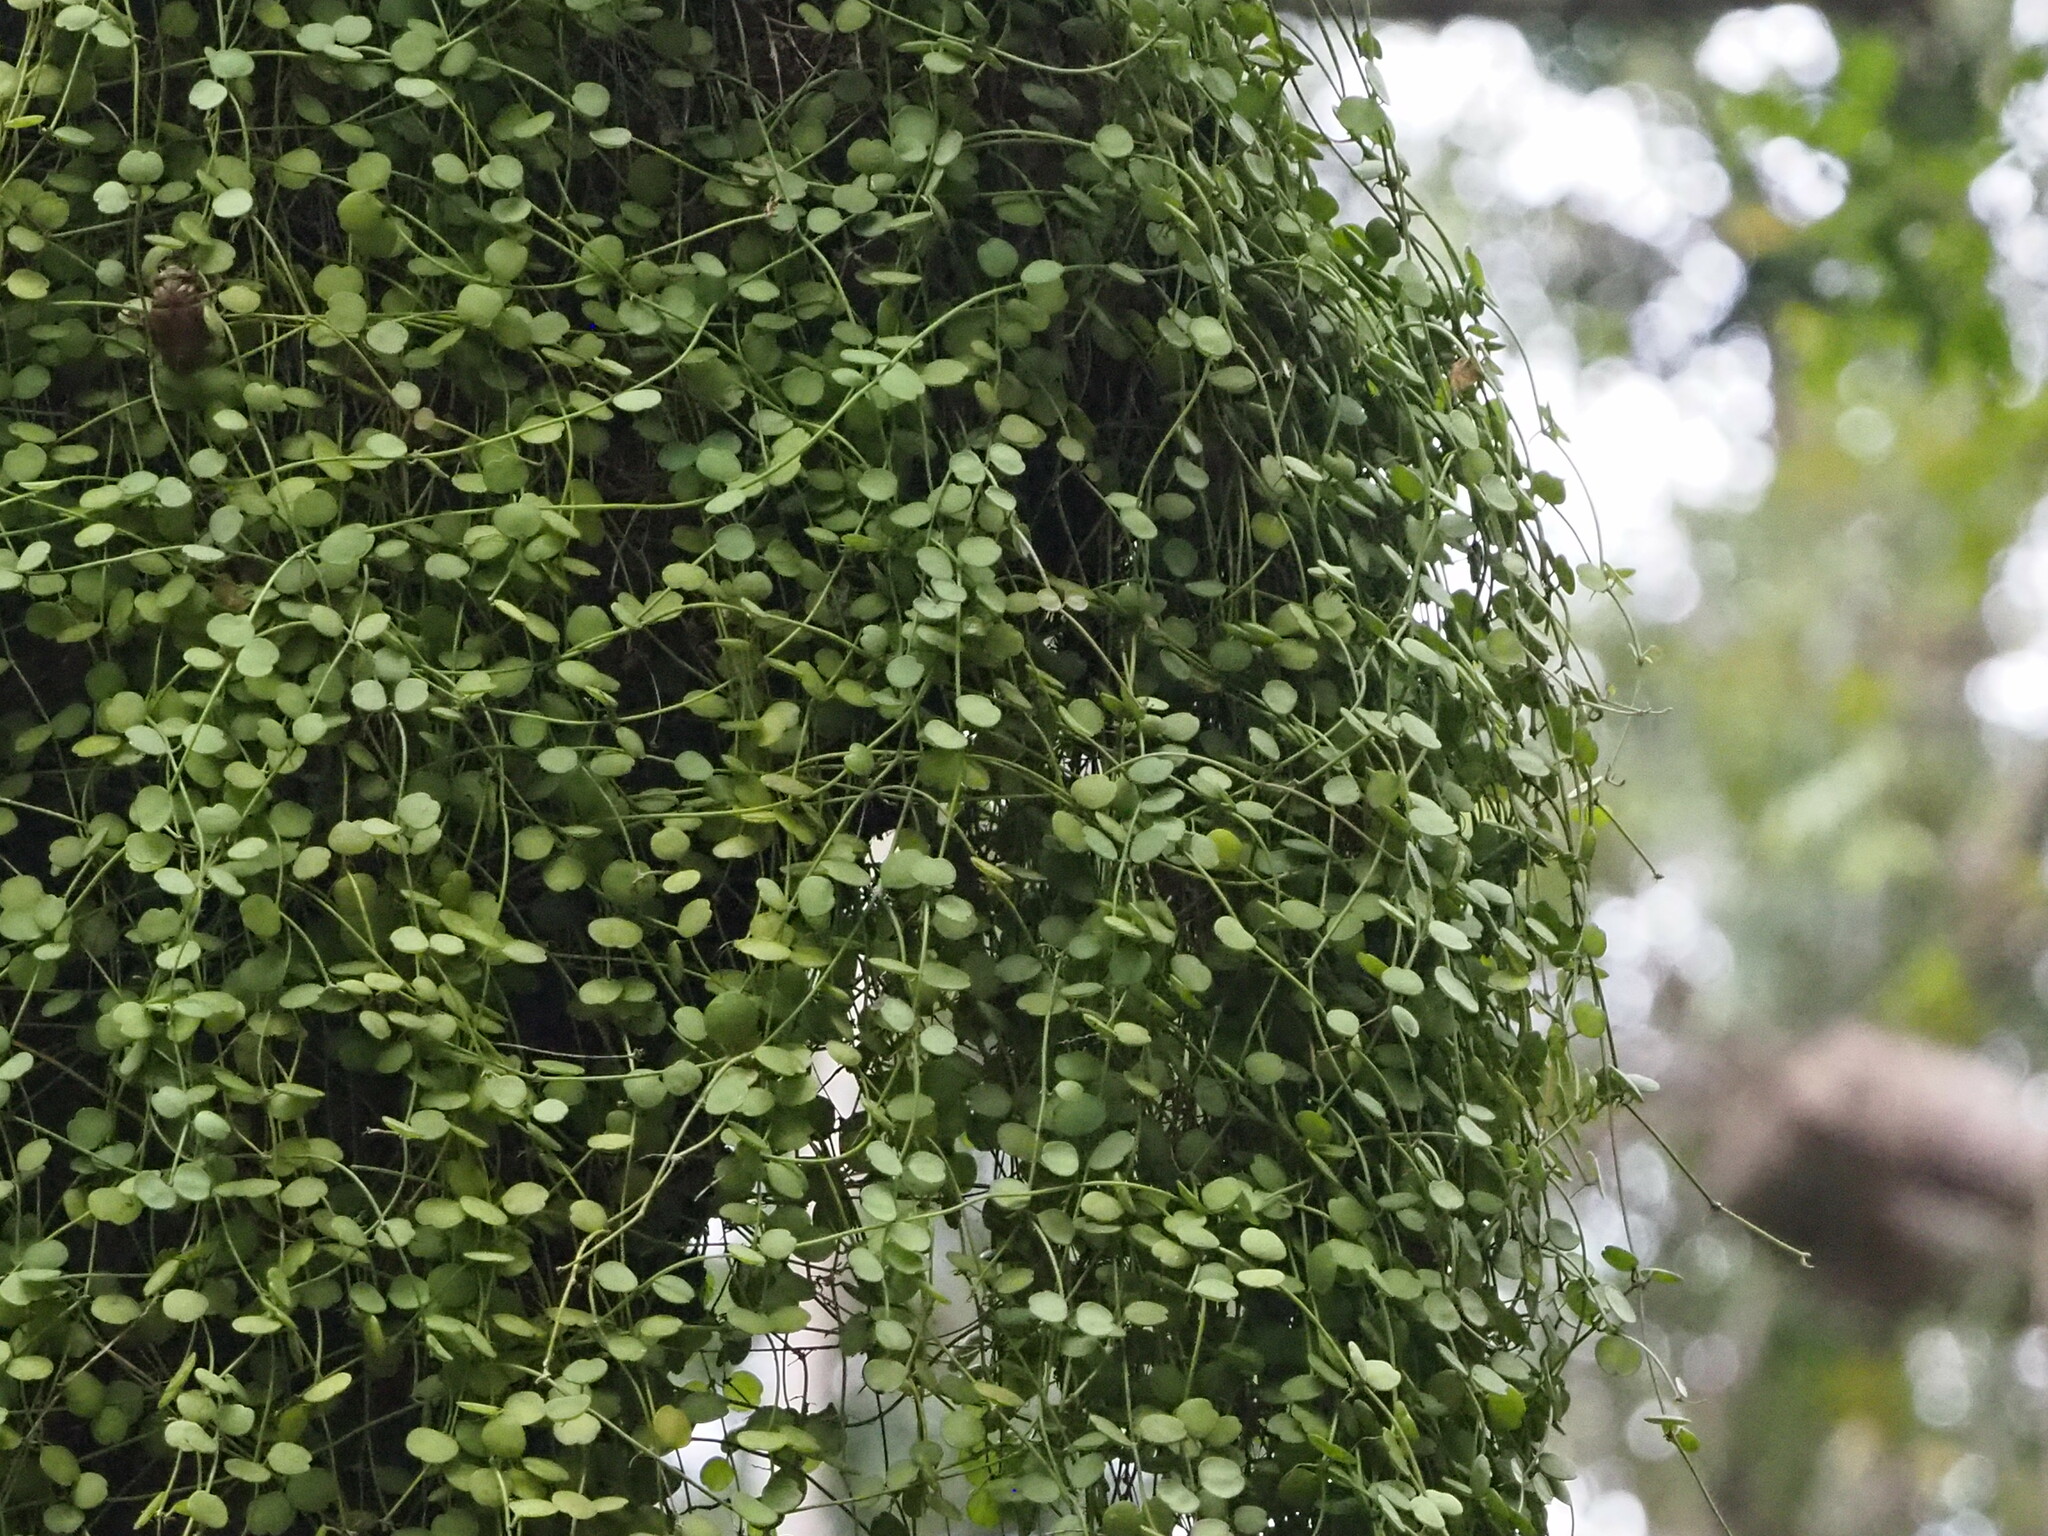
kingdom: Plantae
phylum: Tracheophyta
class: Magnoliopsida
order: Gentianales
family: Apocynaceae
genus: Dischidia
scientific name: Dischidia formosana
